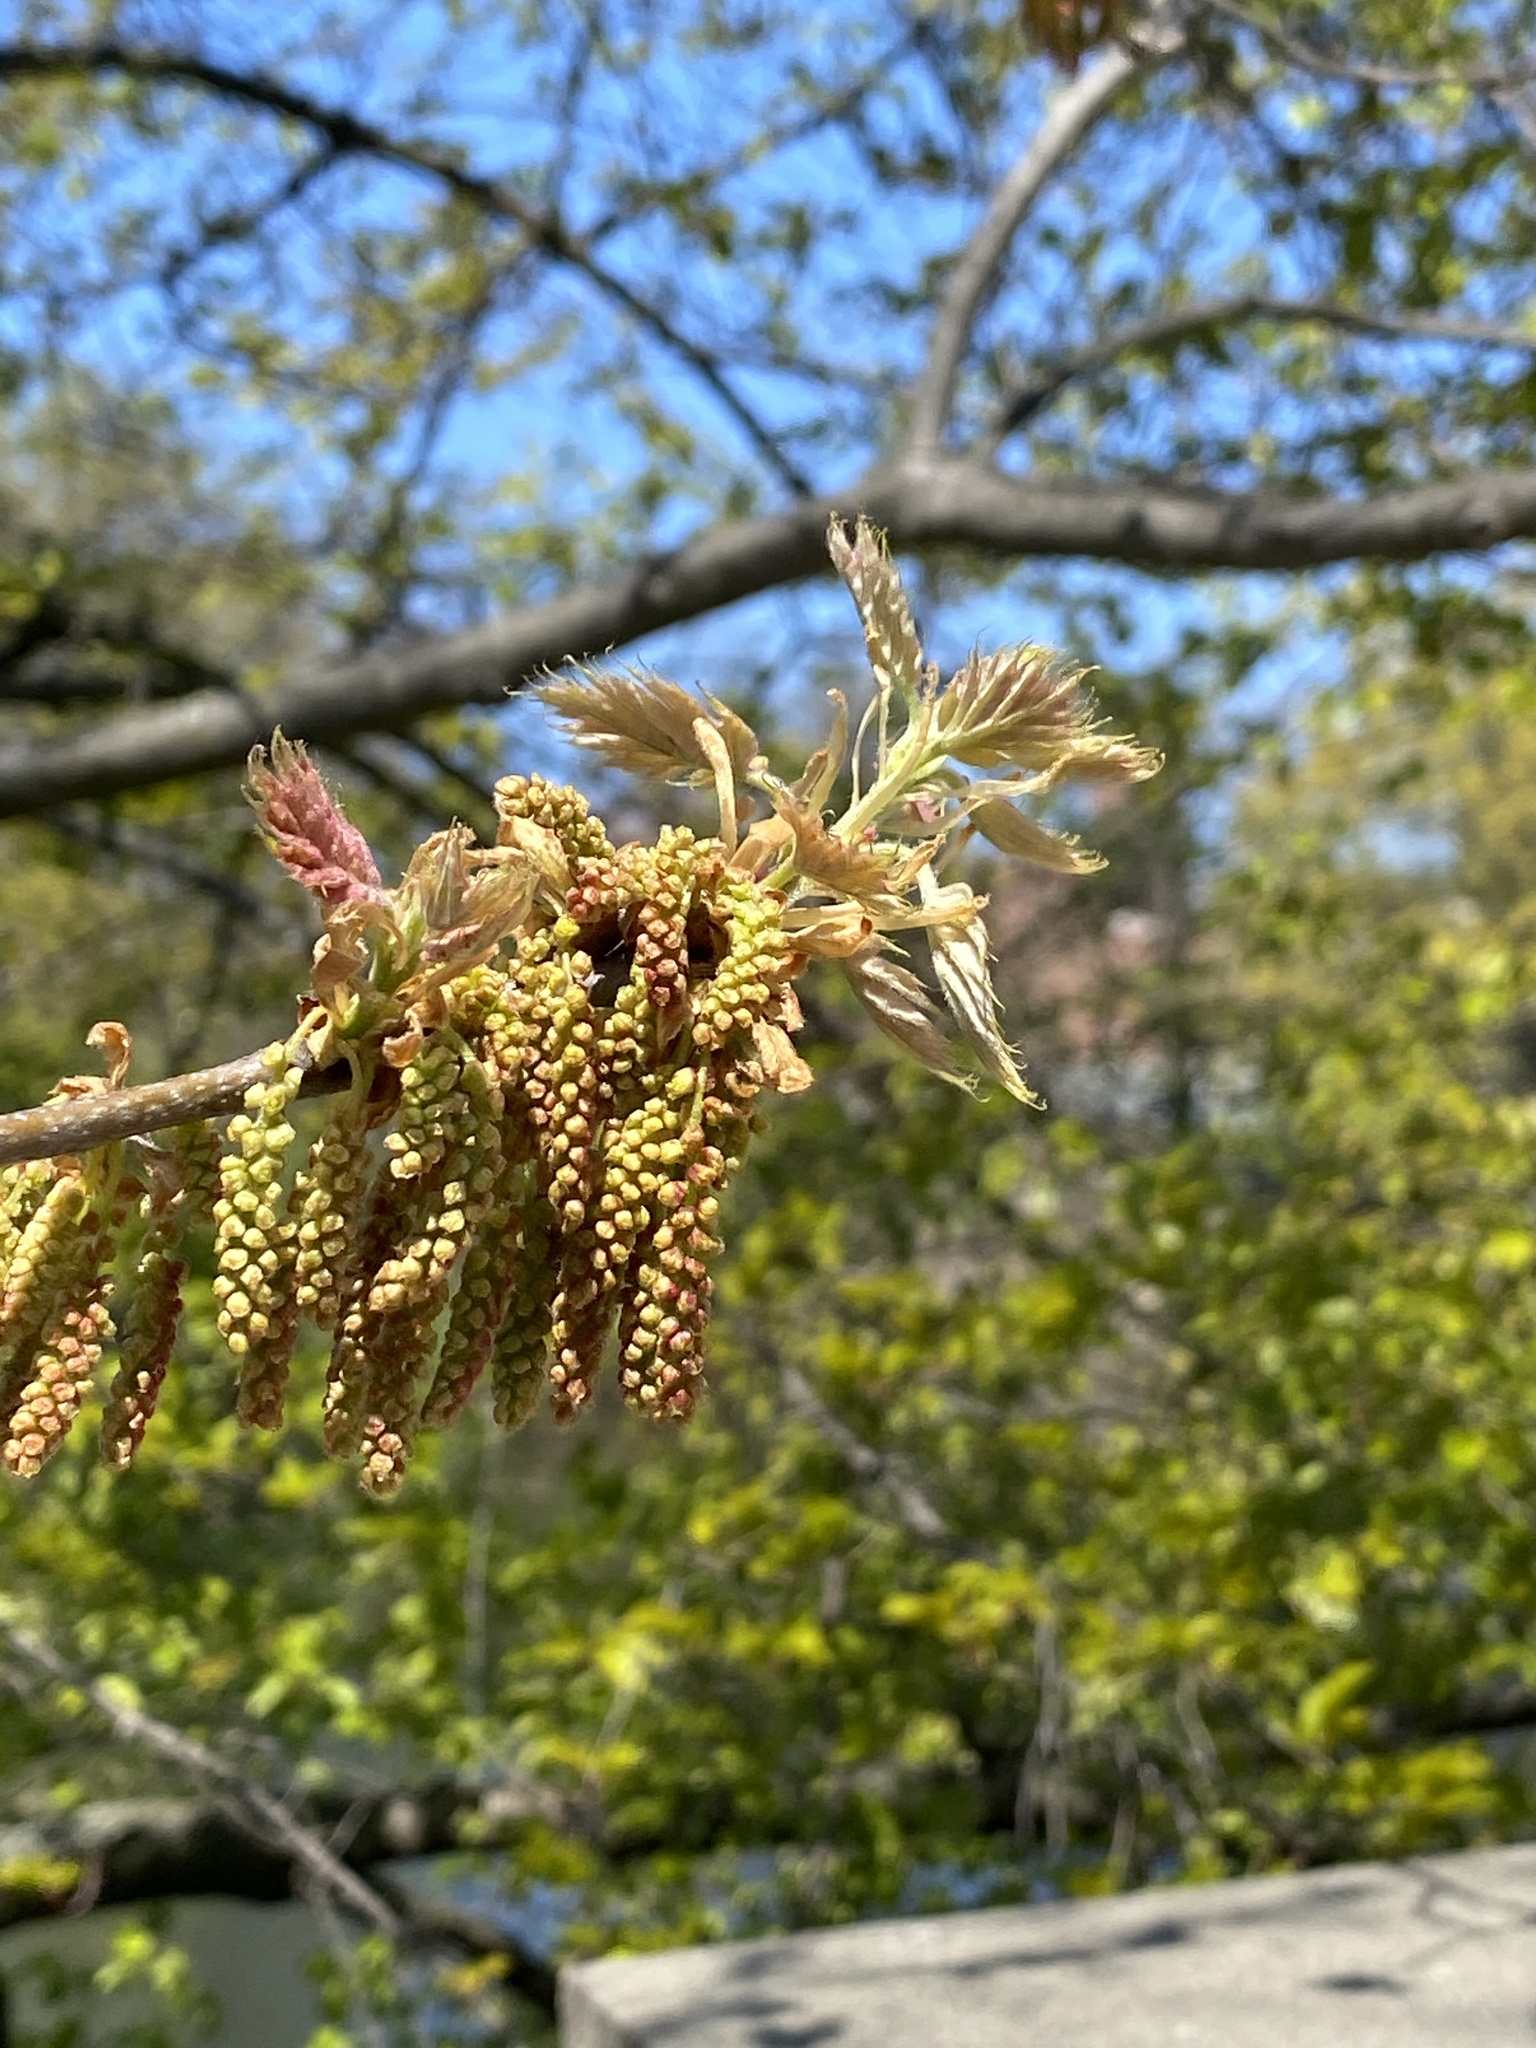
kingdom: Plantae
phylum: Tracheophyta
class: Magnoliopsida
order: Fagales
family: Fagaceae
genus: Quercus
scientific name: Quercus rubra
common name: Red oak
